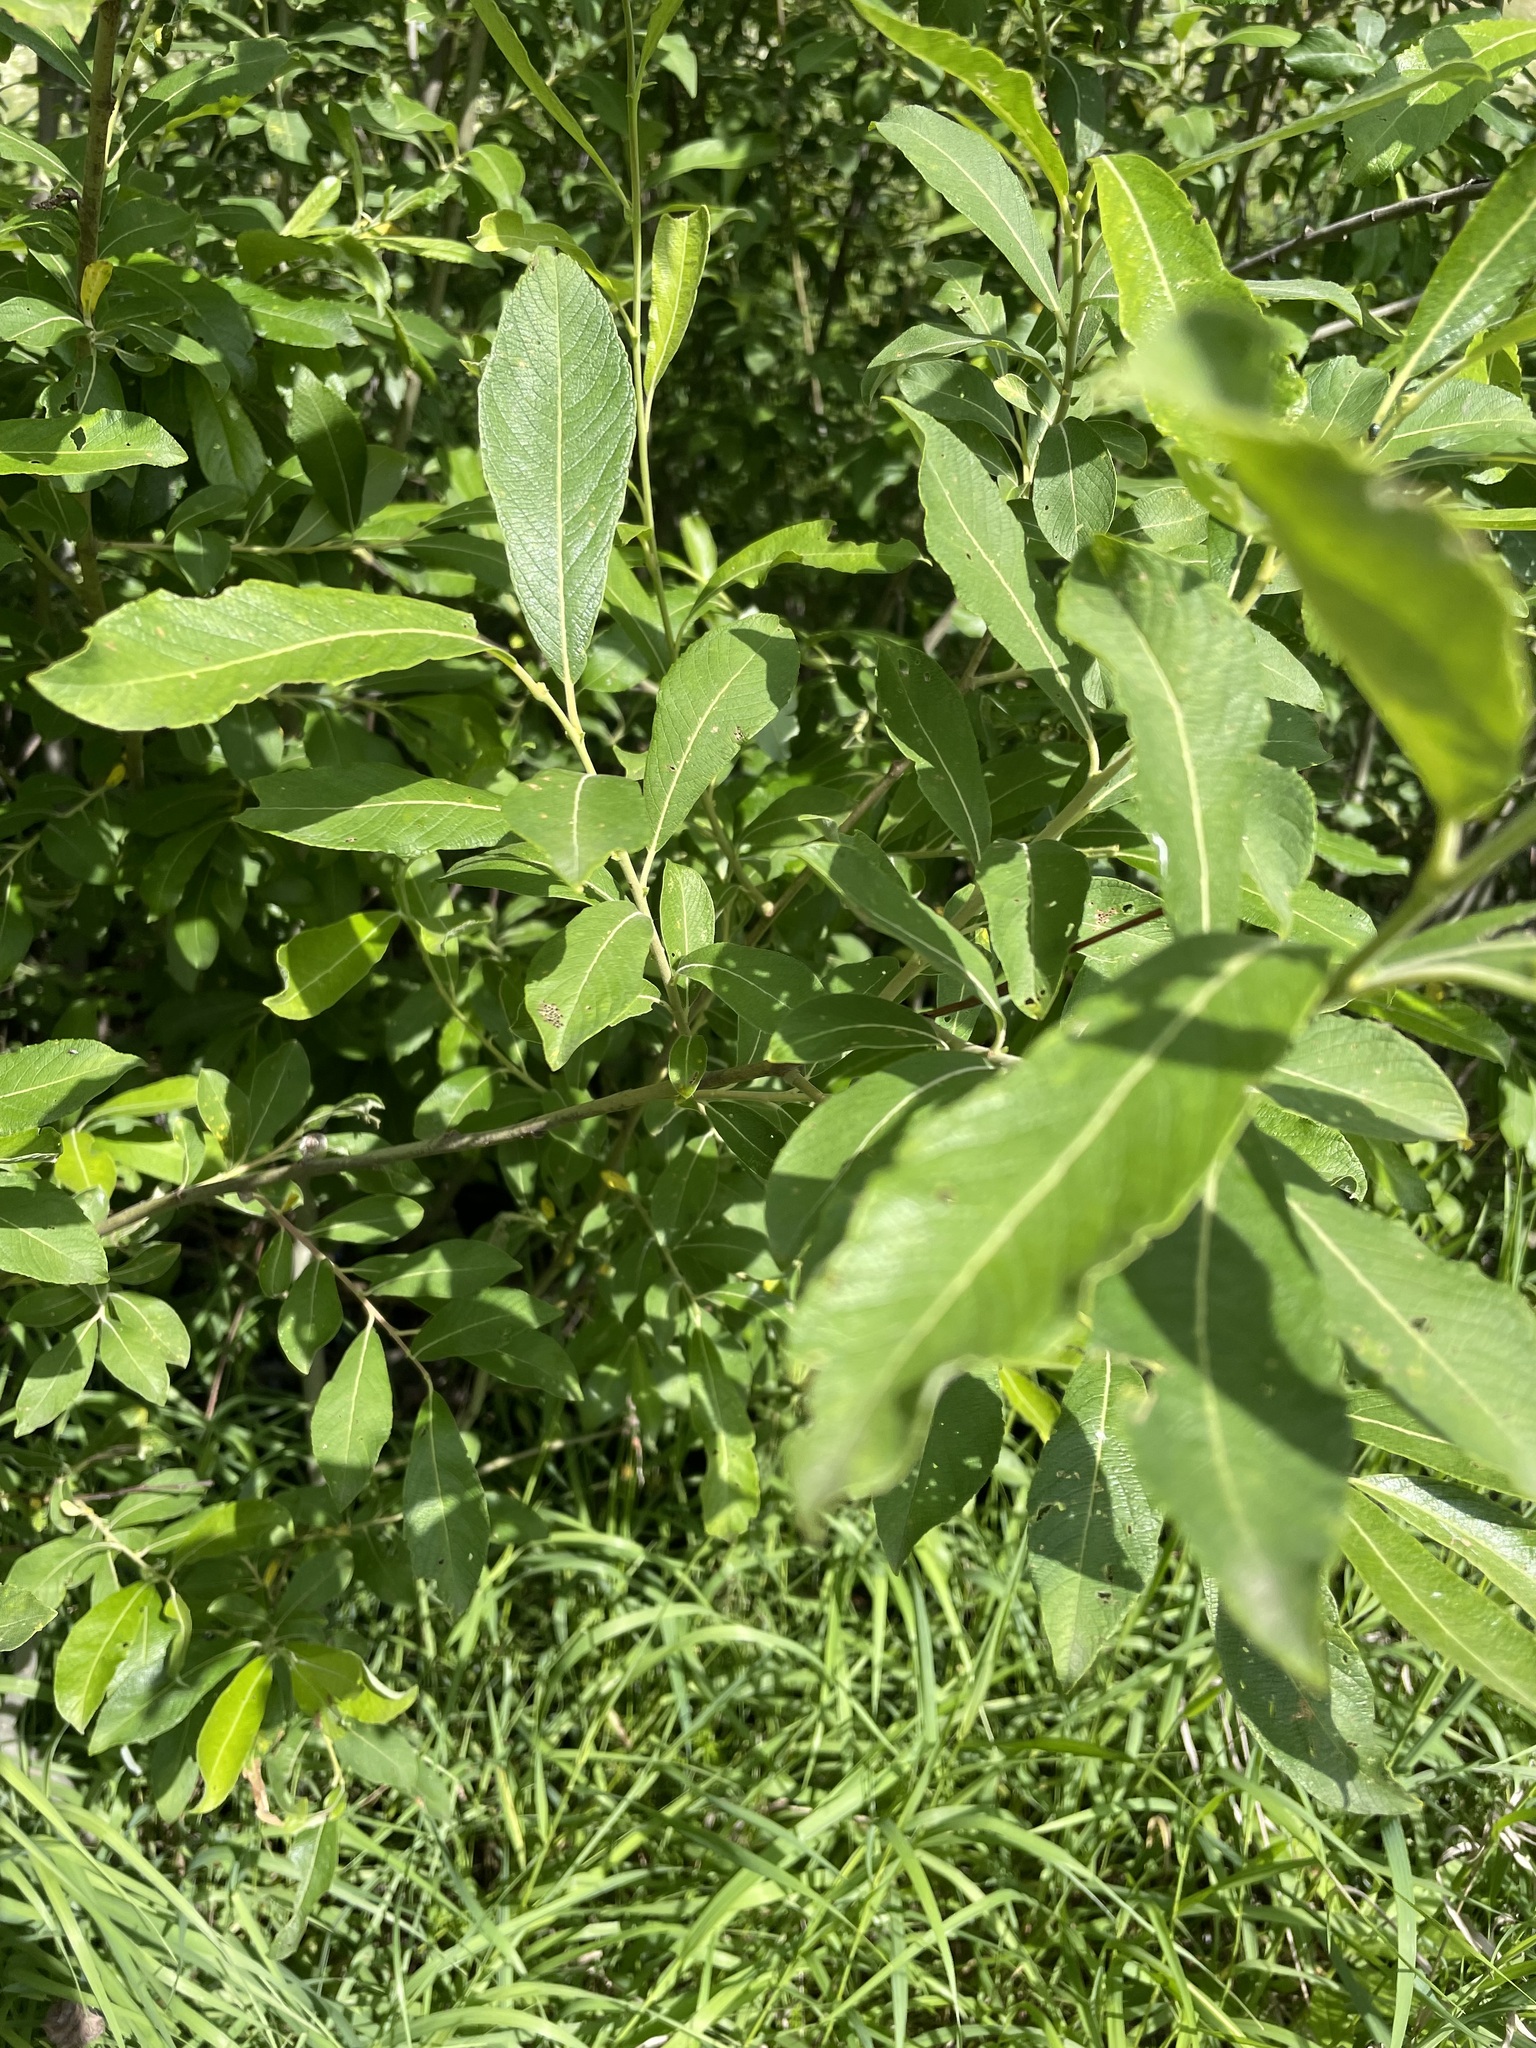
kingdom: Plantae
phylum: Tracheophyta
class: Magnoliopsida
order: Malpighiales
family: Salicaceae
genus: Salix
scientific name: Salix cinerea
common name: Common sallow
